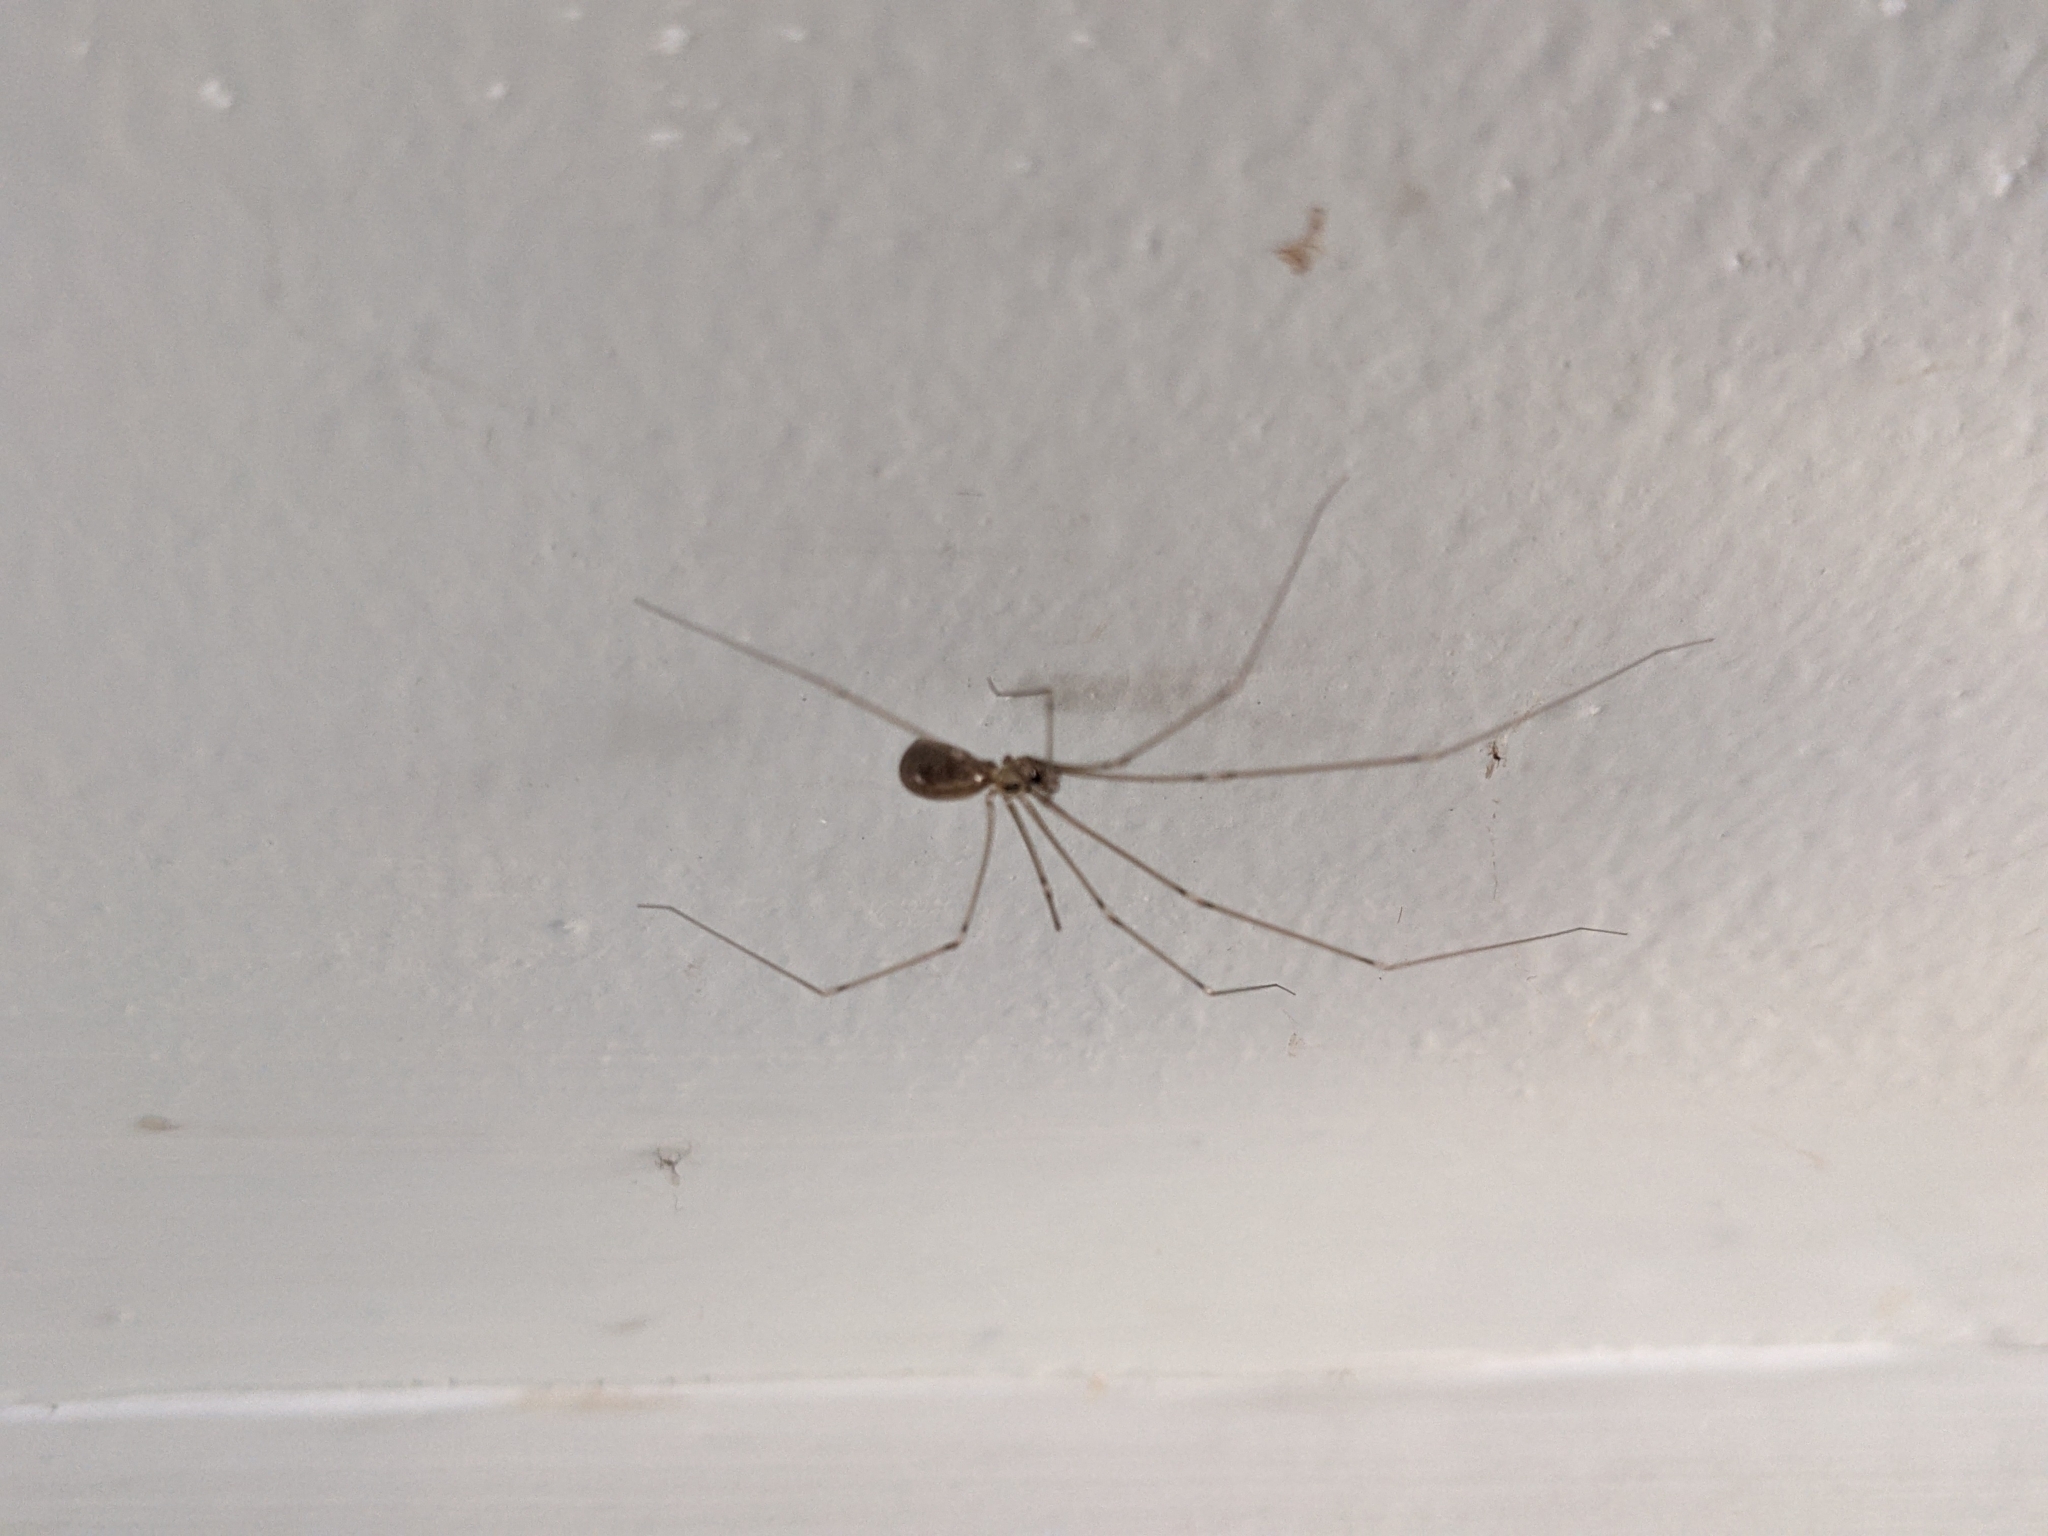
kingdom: Animalia
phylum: Arthropoda
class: Arachnida
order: Araneae
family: Pholcidae
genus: Pholcus
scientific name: Pholcus phalangioides
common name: Longbodied cellar spider
